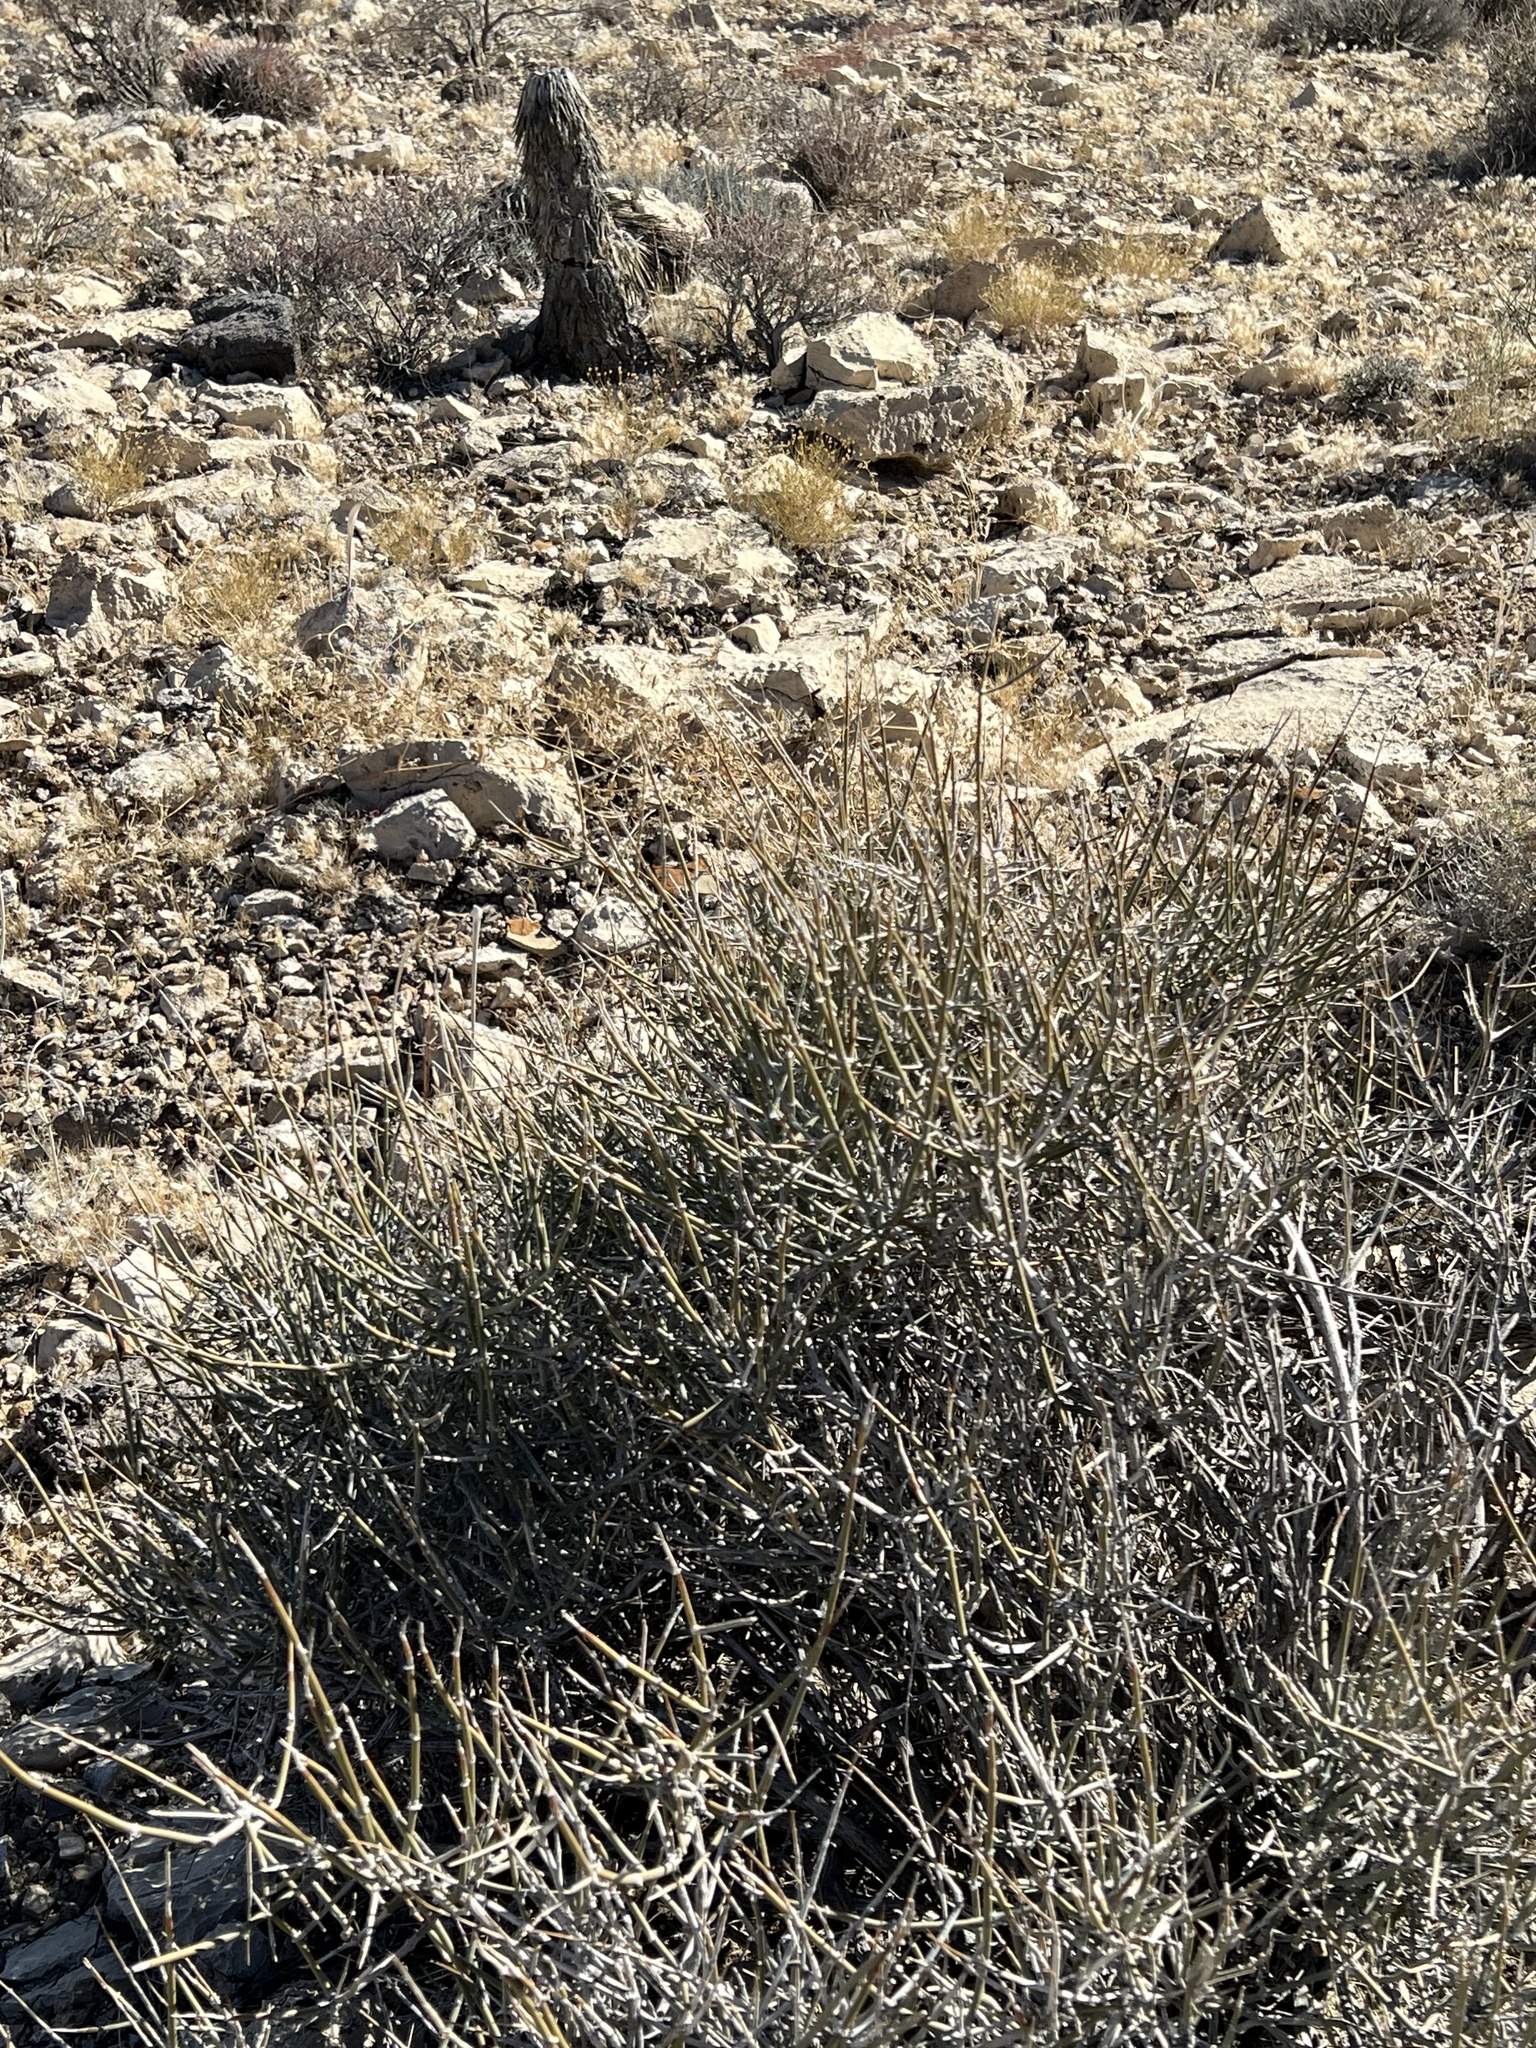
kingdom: Plantae
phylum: Tracheophyta
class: Gnetopsida
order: Ephedrales
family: Ephedraceae
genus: Ephedra
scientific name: Ephedra nevadensis
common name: Gray ephedra
